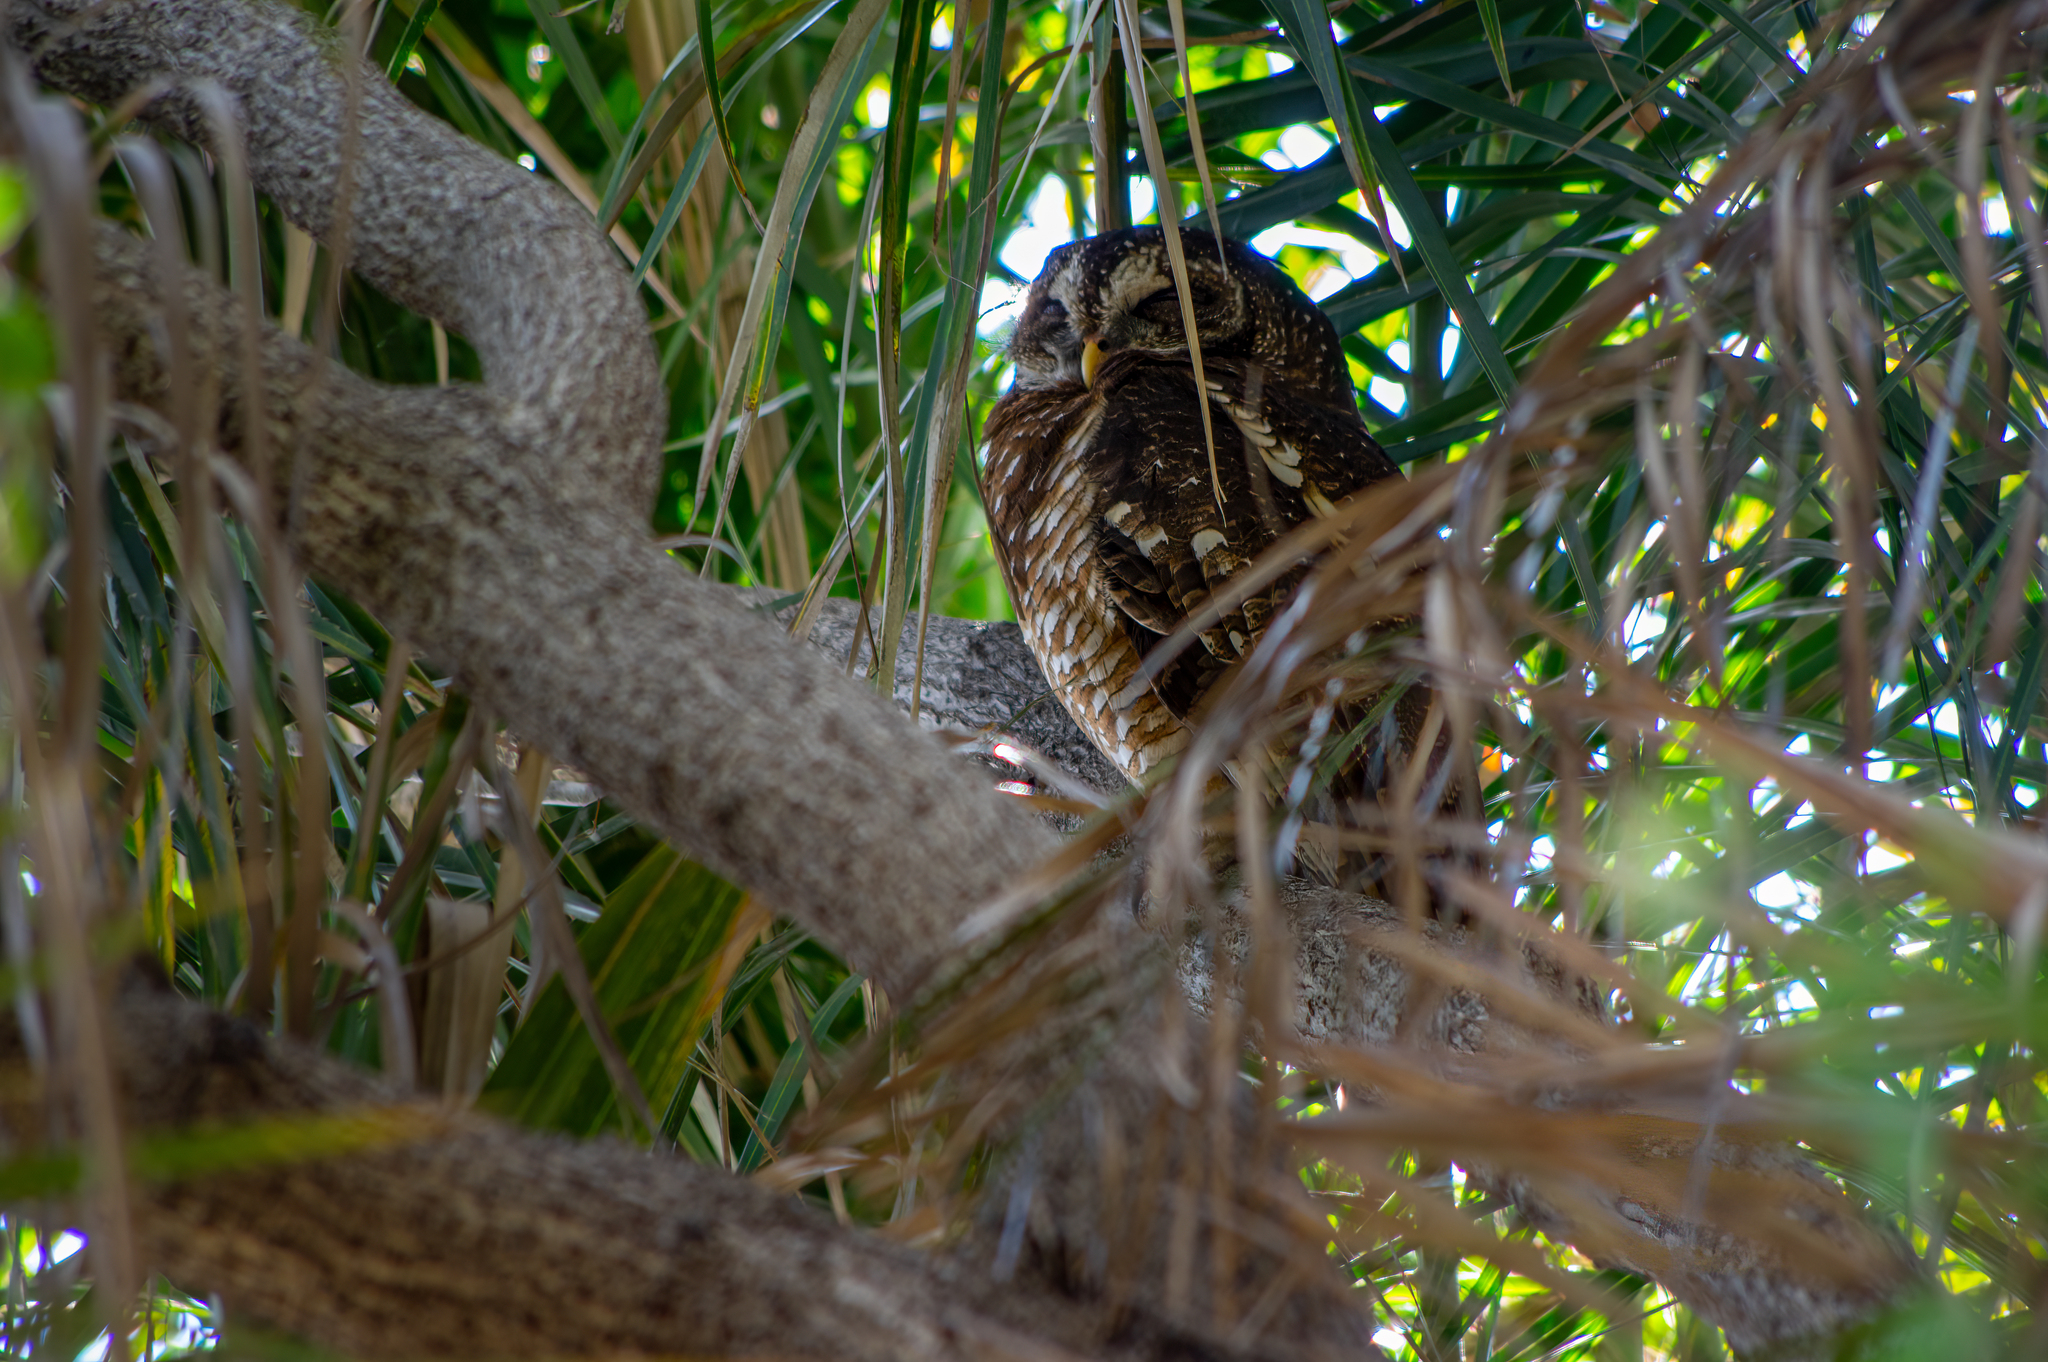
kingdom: Animalia
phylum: Chordata
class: Aves
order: Strigiformes
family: Strigidae
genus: Strix
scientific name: Strix woodfordii
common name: African wood owl
